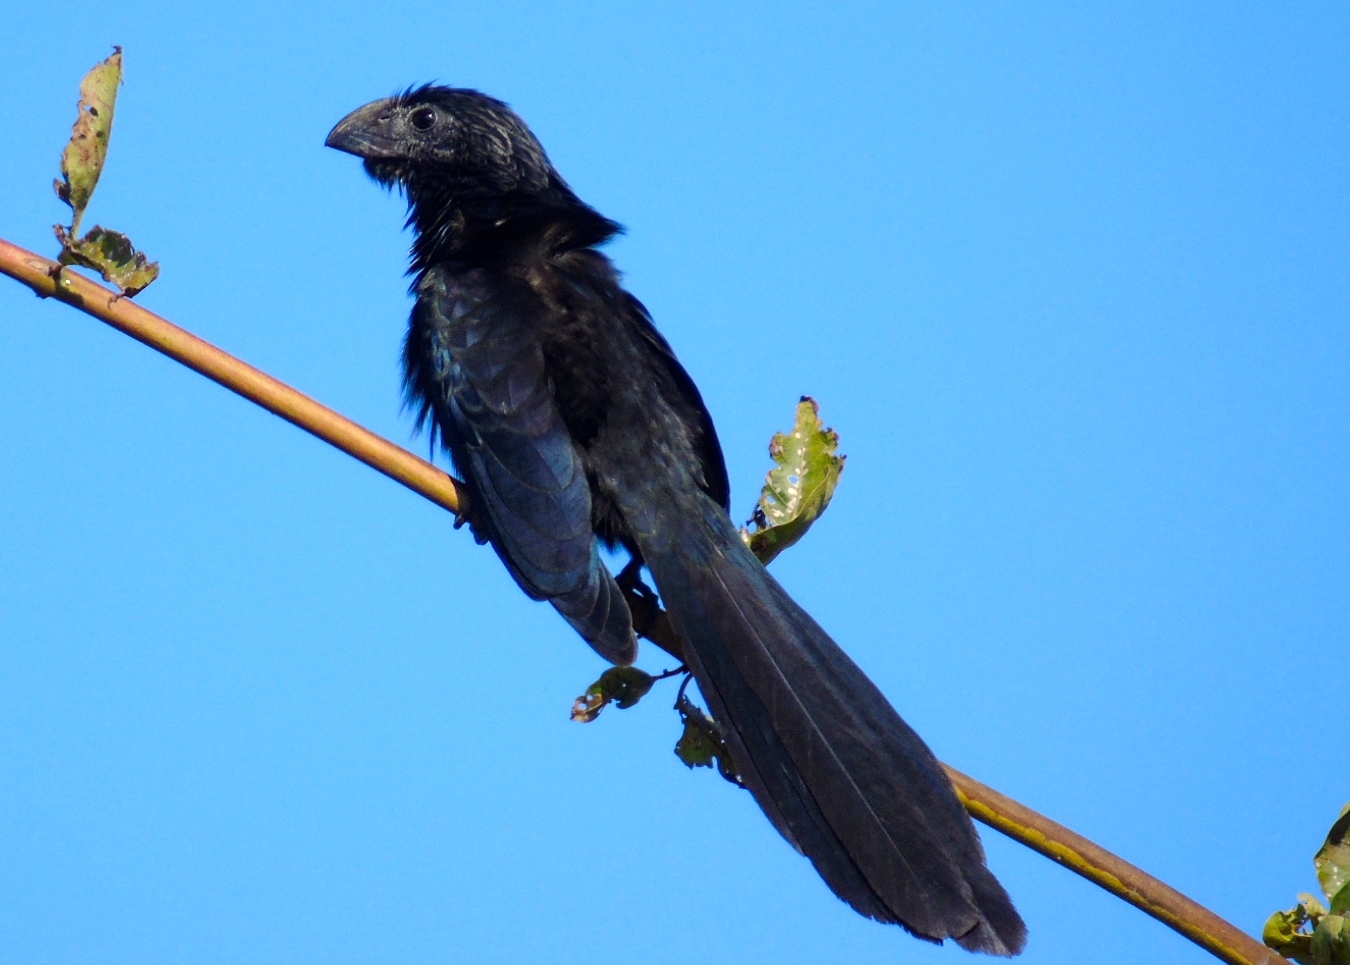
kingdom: Animalia
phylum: Chordata
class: Aves
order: Cuculiformes
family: Cuculidae
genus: Crotophaga
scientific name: Crotophaga sulcirostris
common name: Groove-billed ani
